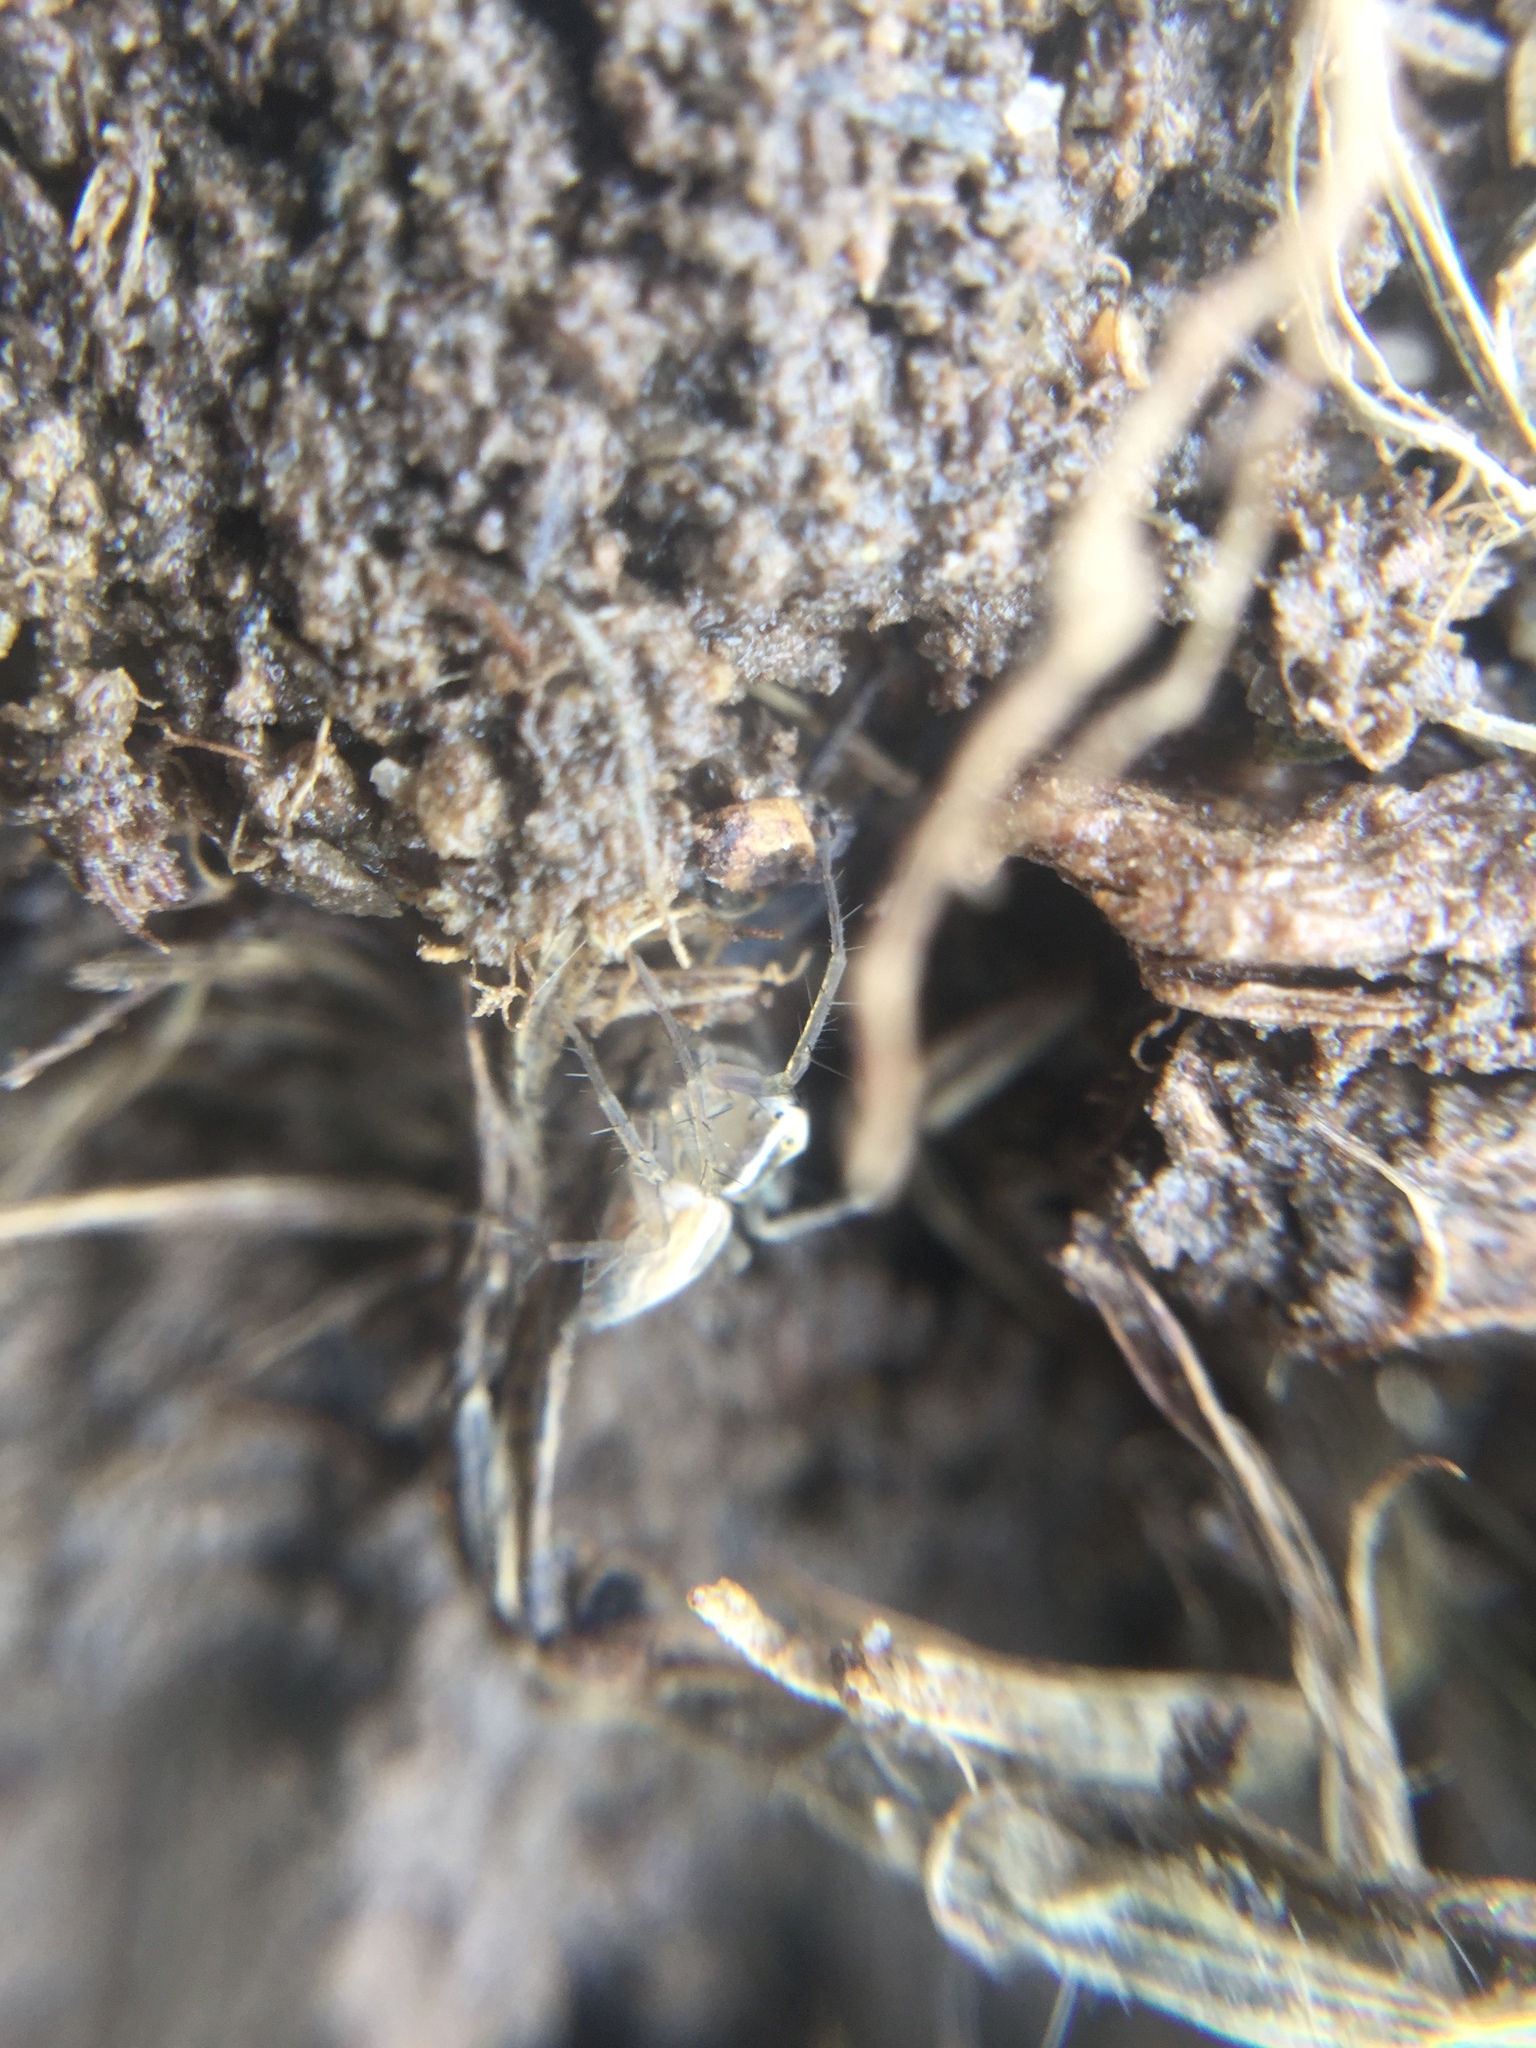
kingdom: Animalia
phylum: Arthropoda
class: Arachnida
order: Araneae
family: Oxyopidae
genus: Oxyopes
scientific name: Oxyopes salticus
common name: Lynx spiders
